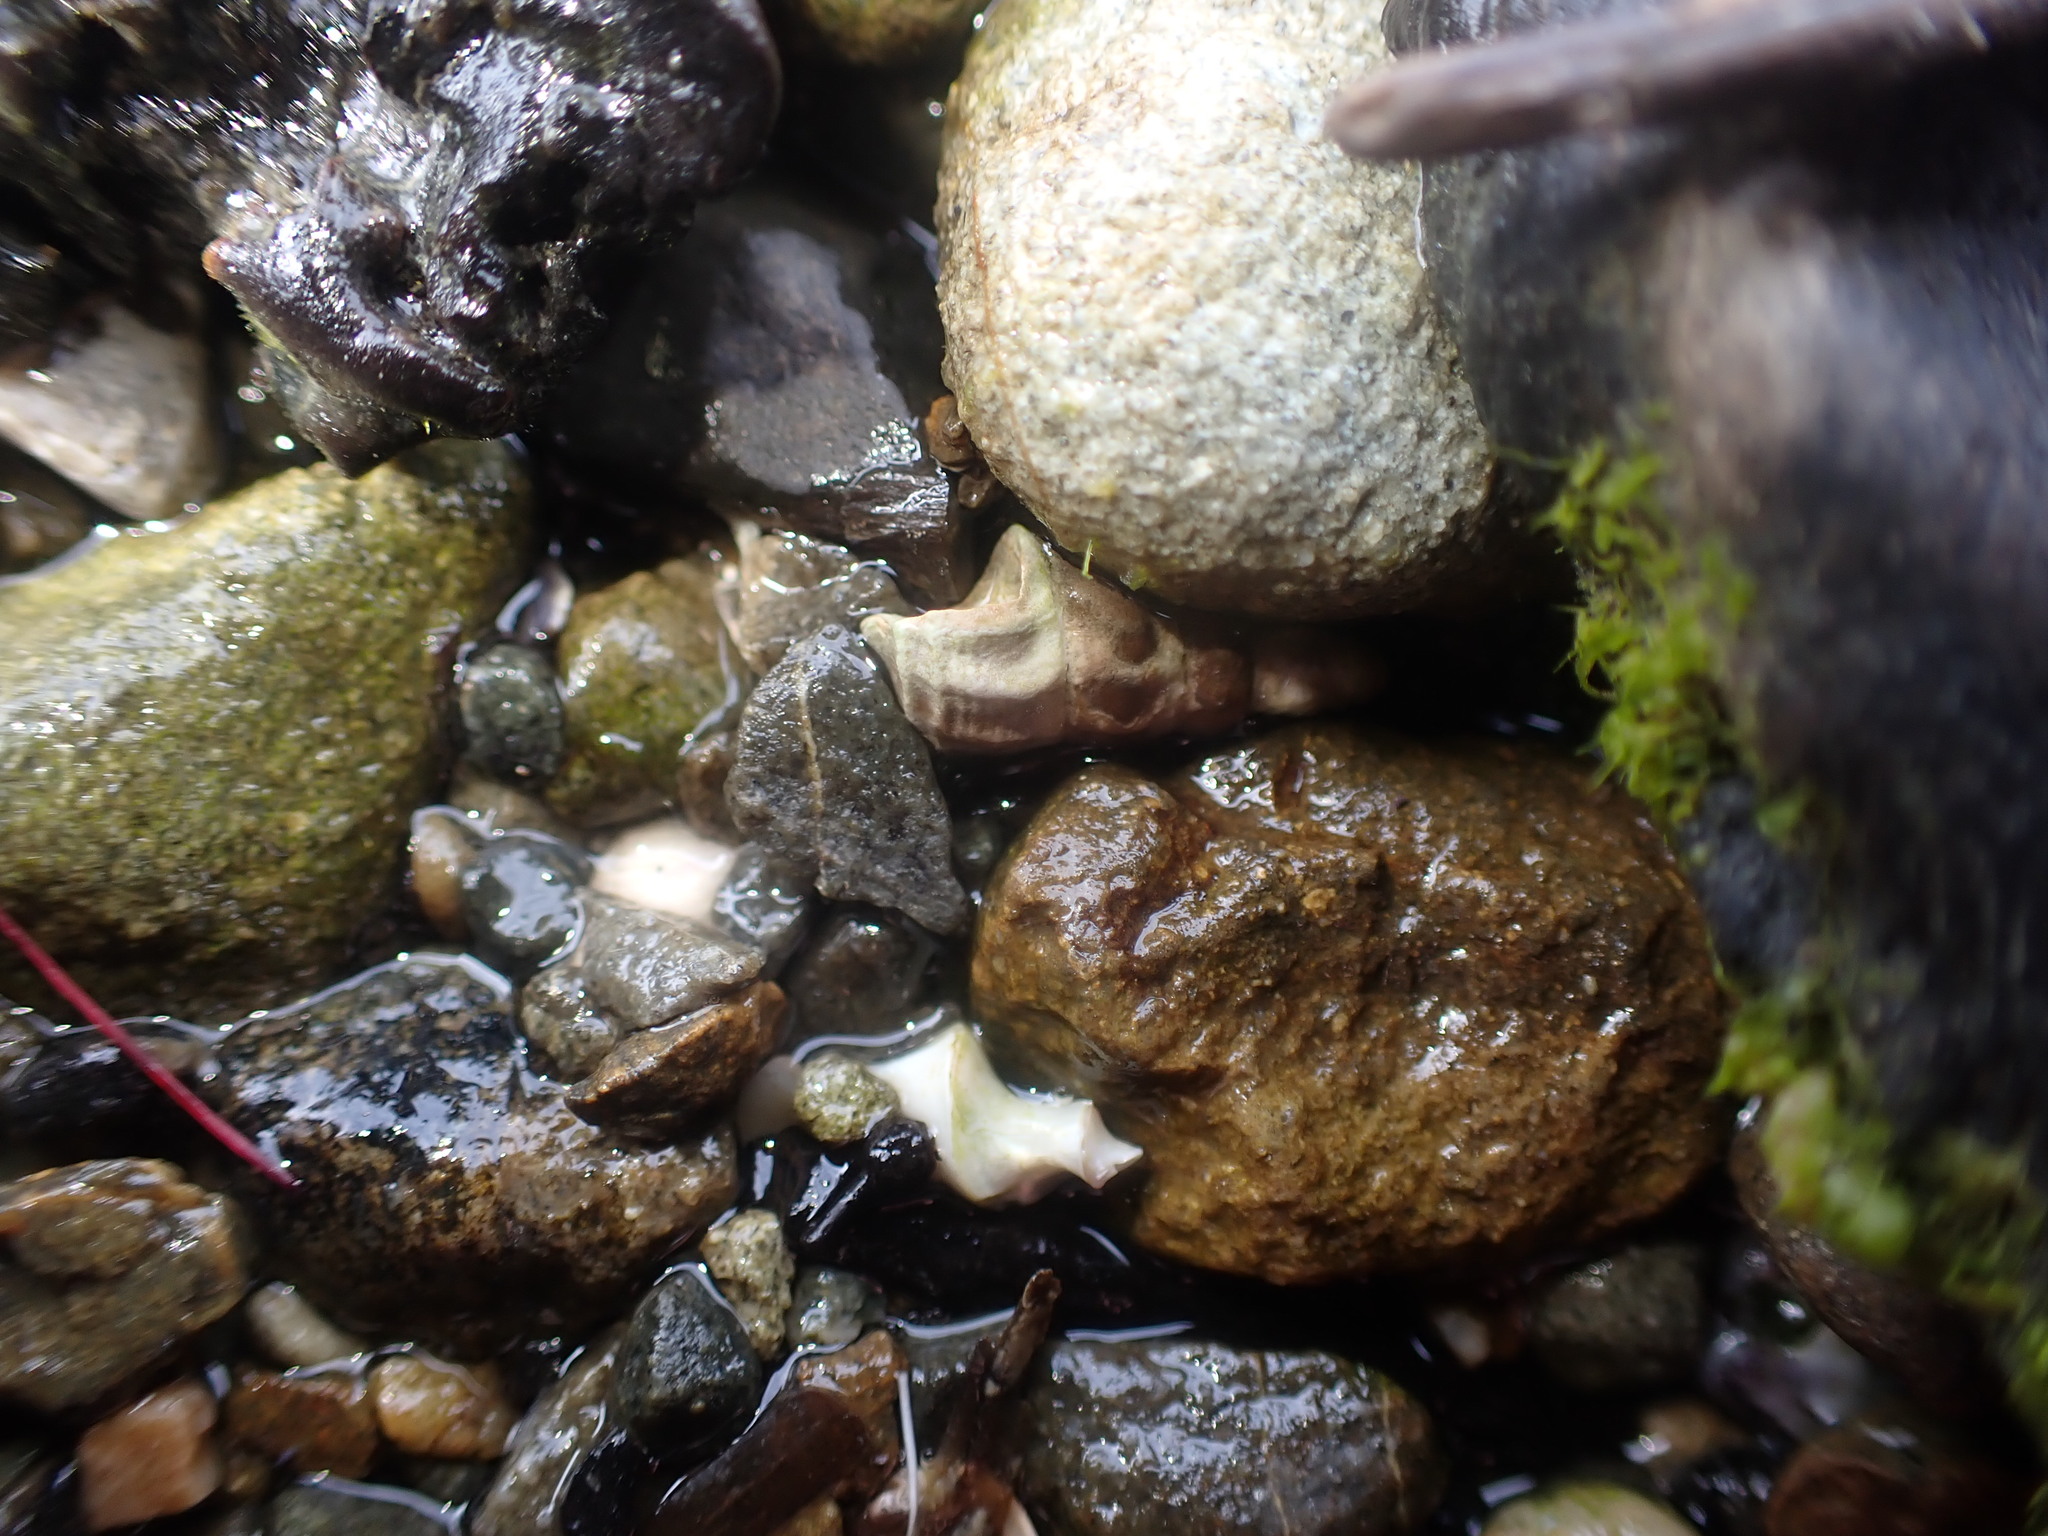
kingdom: Animalia
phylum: Mollusca
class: Gastropoda
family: Batillariidae
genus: Zeacumantus
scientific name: Zeacumantus lutulentus
